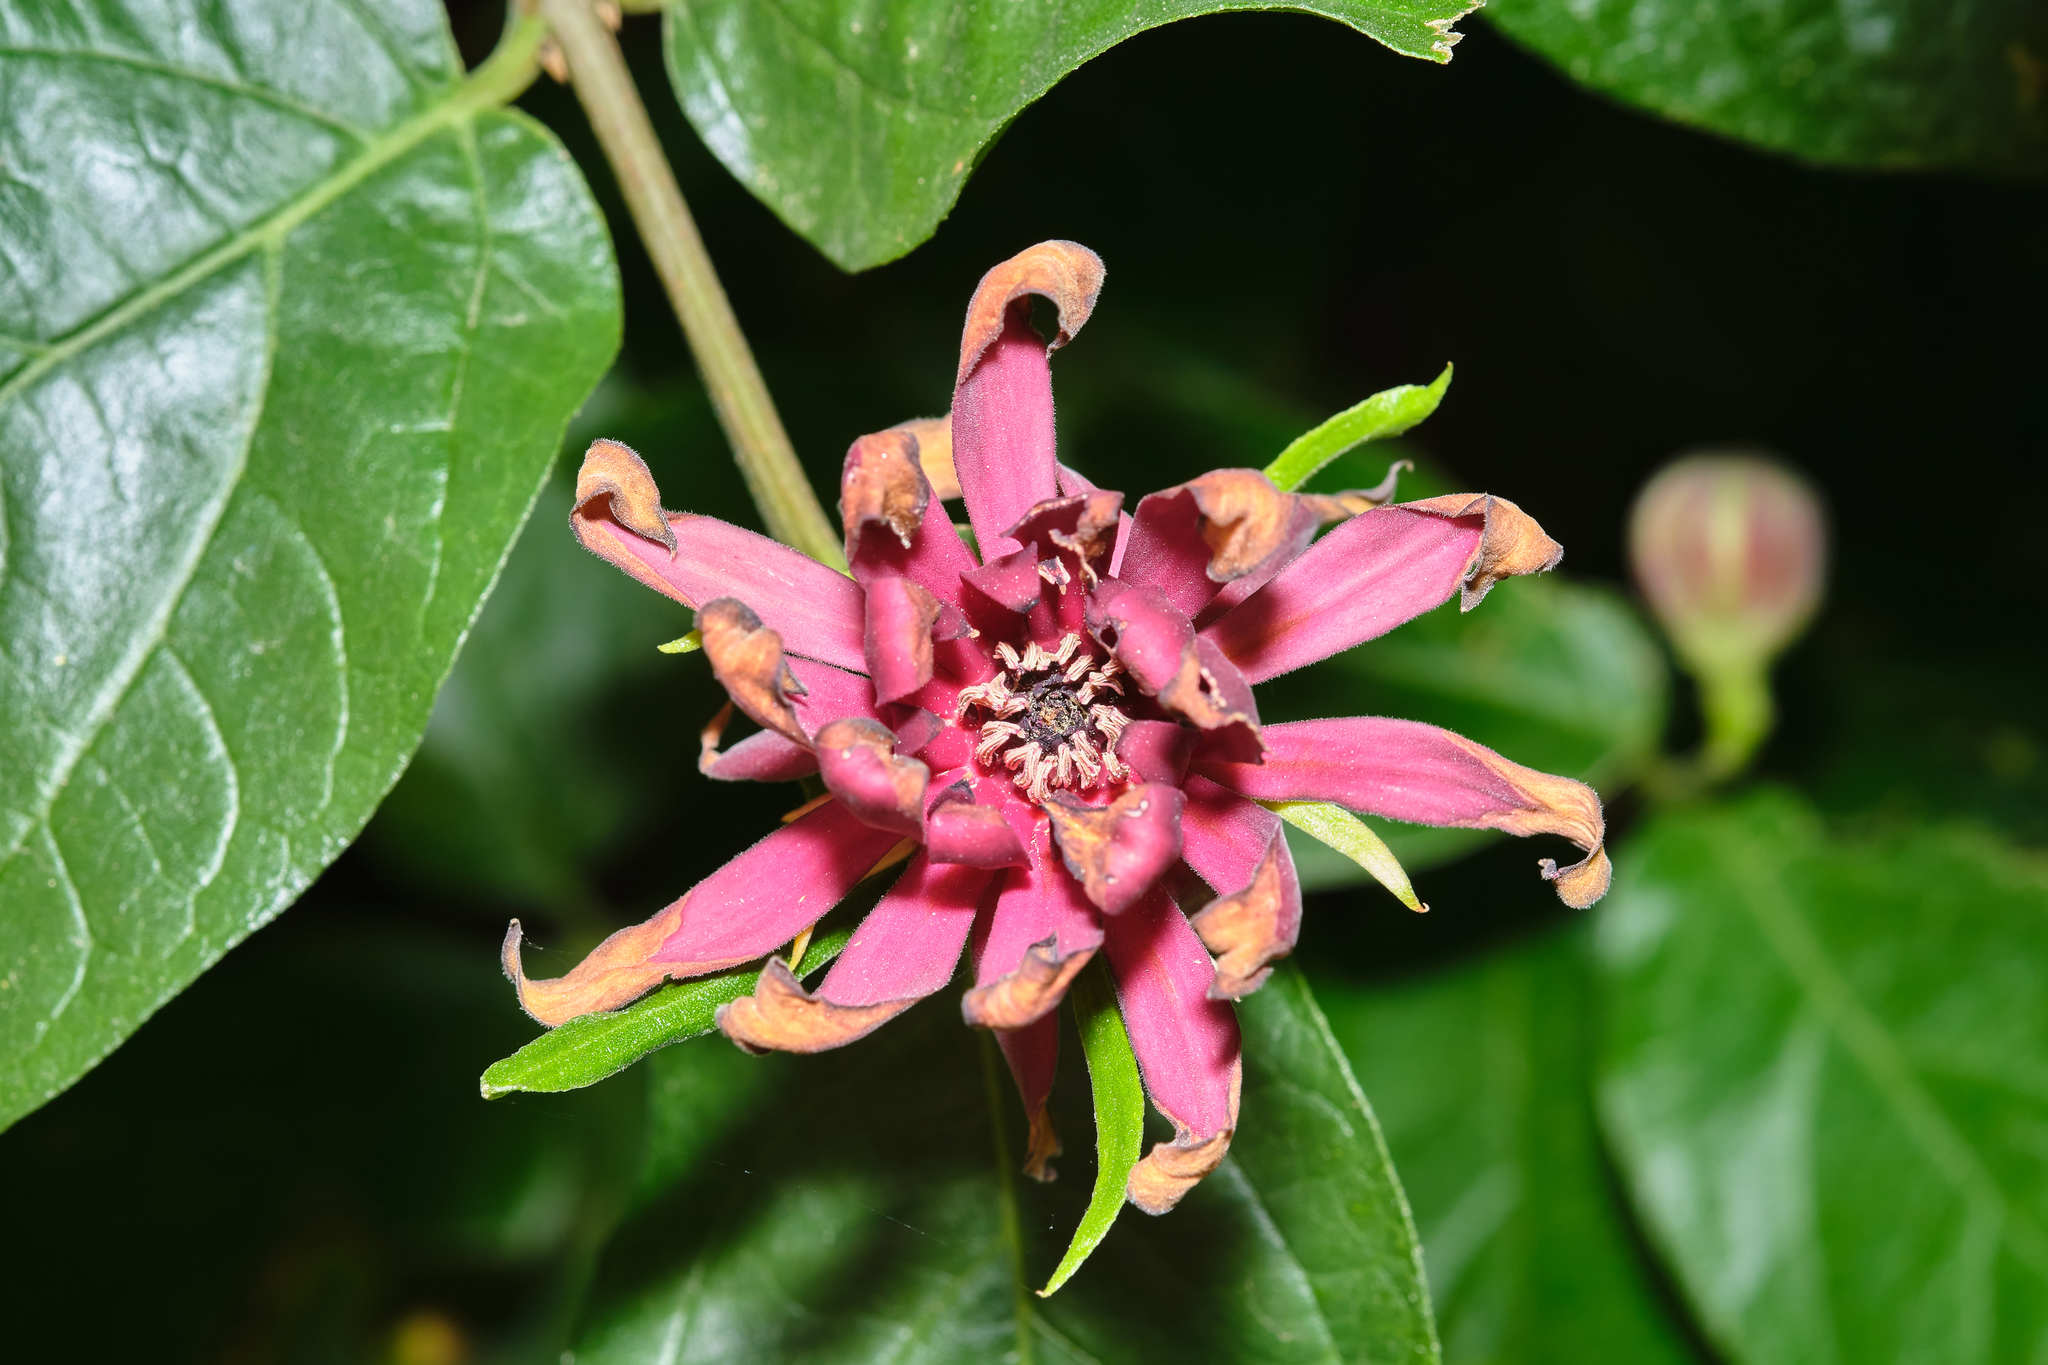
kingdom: Plantae
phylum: Tracheophyta
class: Magnoliopsida
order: Laurales
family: Calycanthaceae
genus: Calycanthus
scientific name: Calycanthus occidentalis
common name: California spicebush
